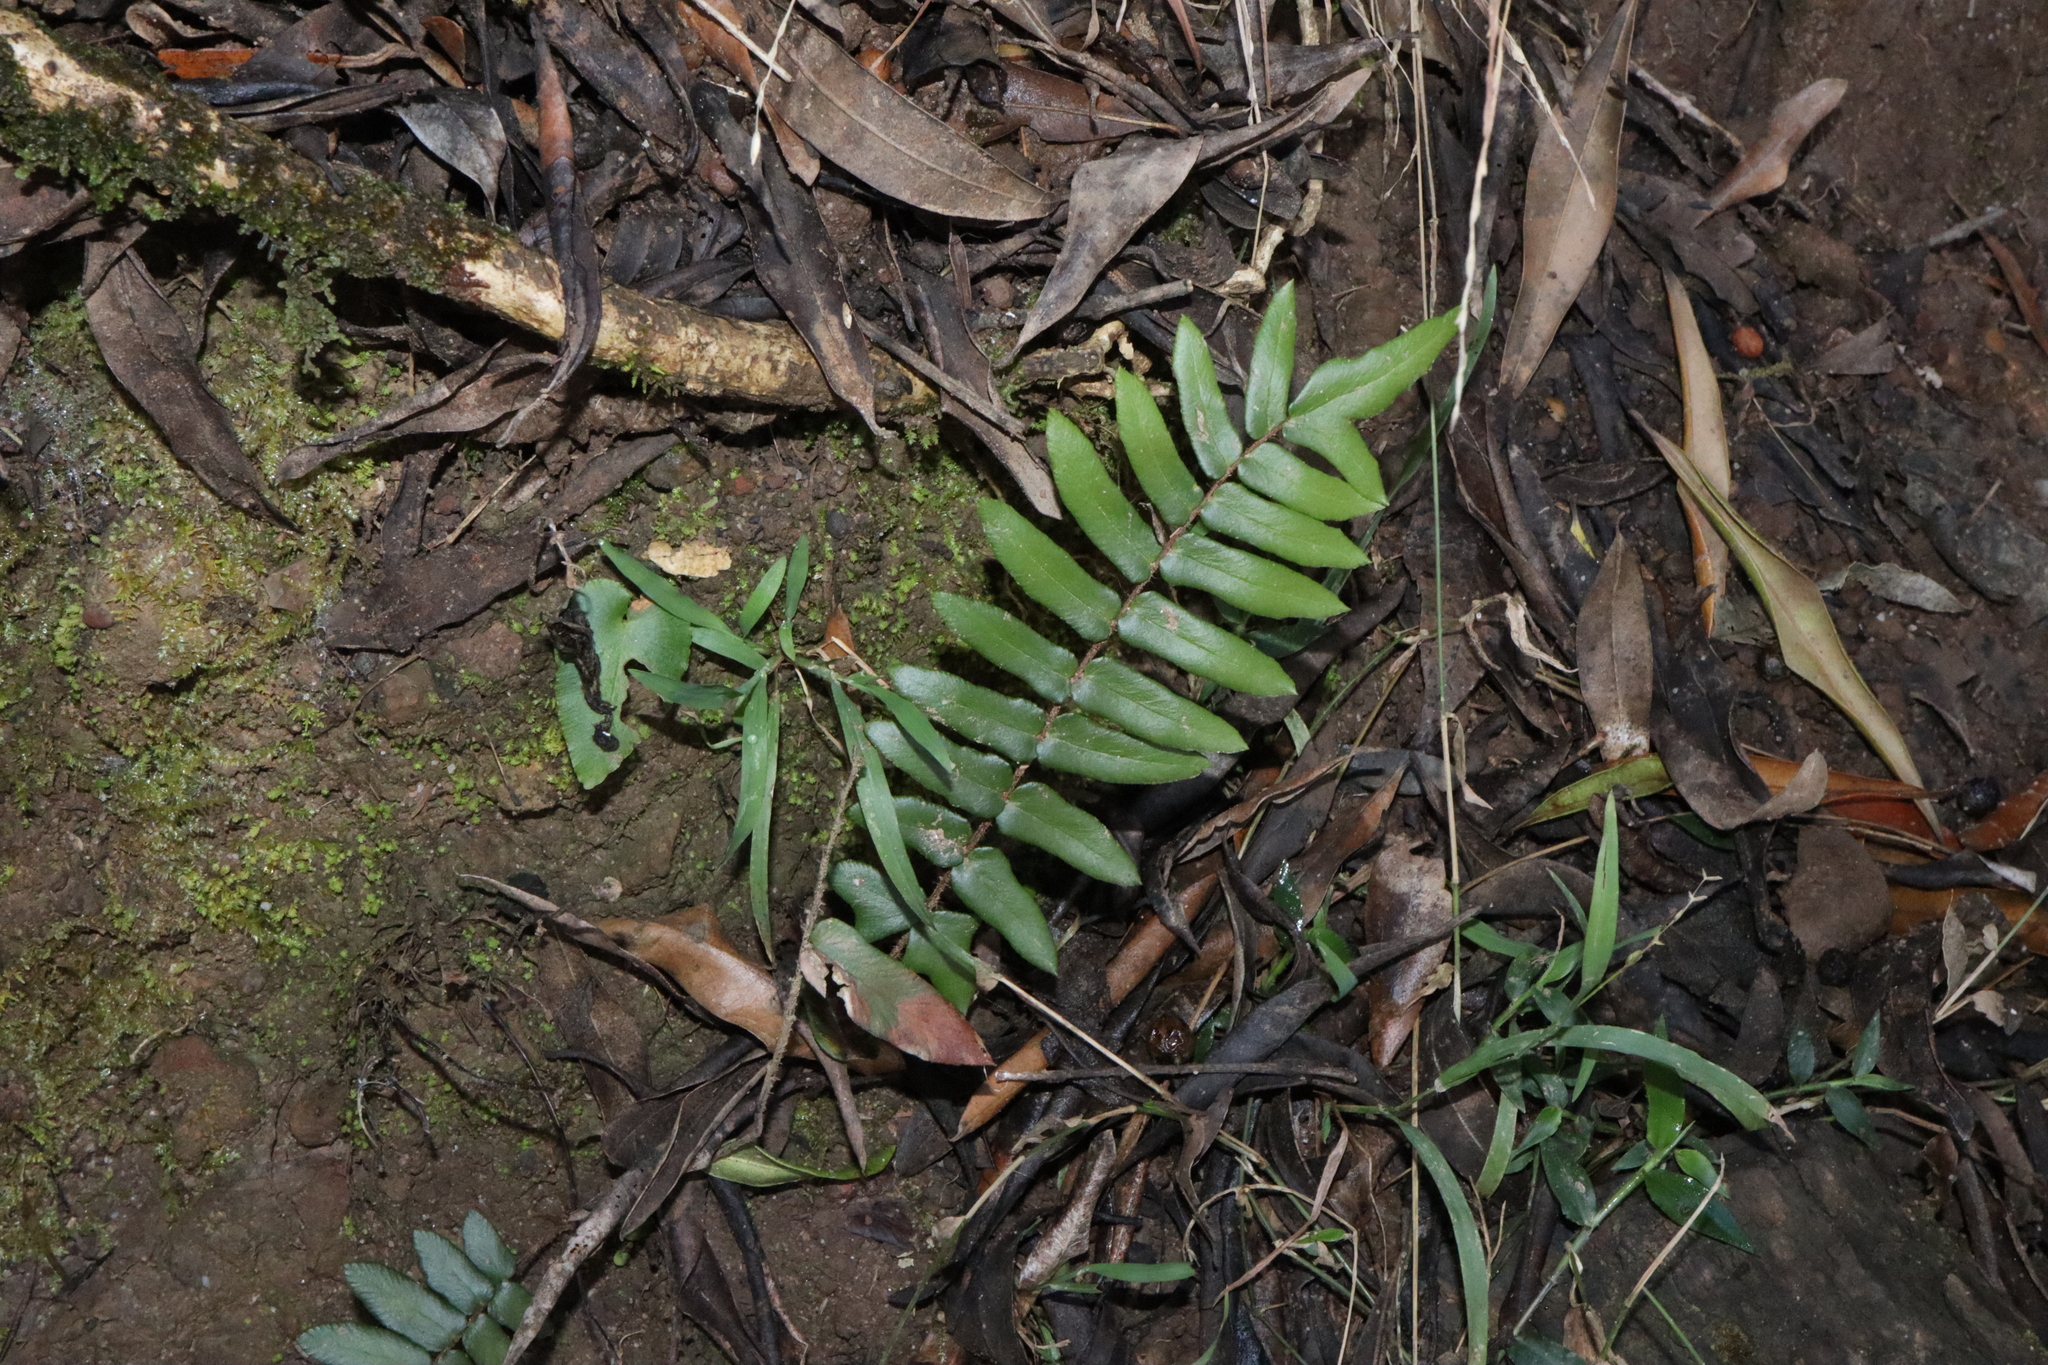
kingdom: Plantae
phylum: Tracheophyta
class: Polypodiopsida
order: Polypodiales
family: Pteridaceae
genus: Pellaea
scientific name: Pellaea falcata
